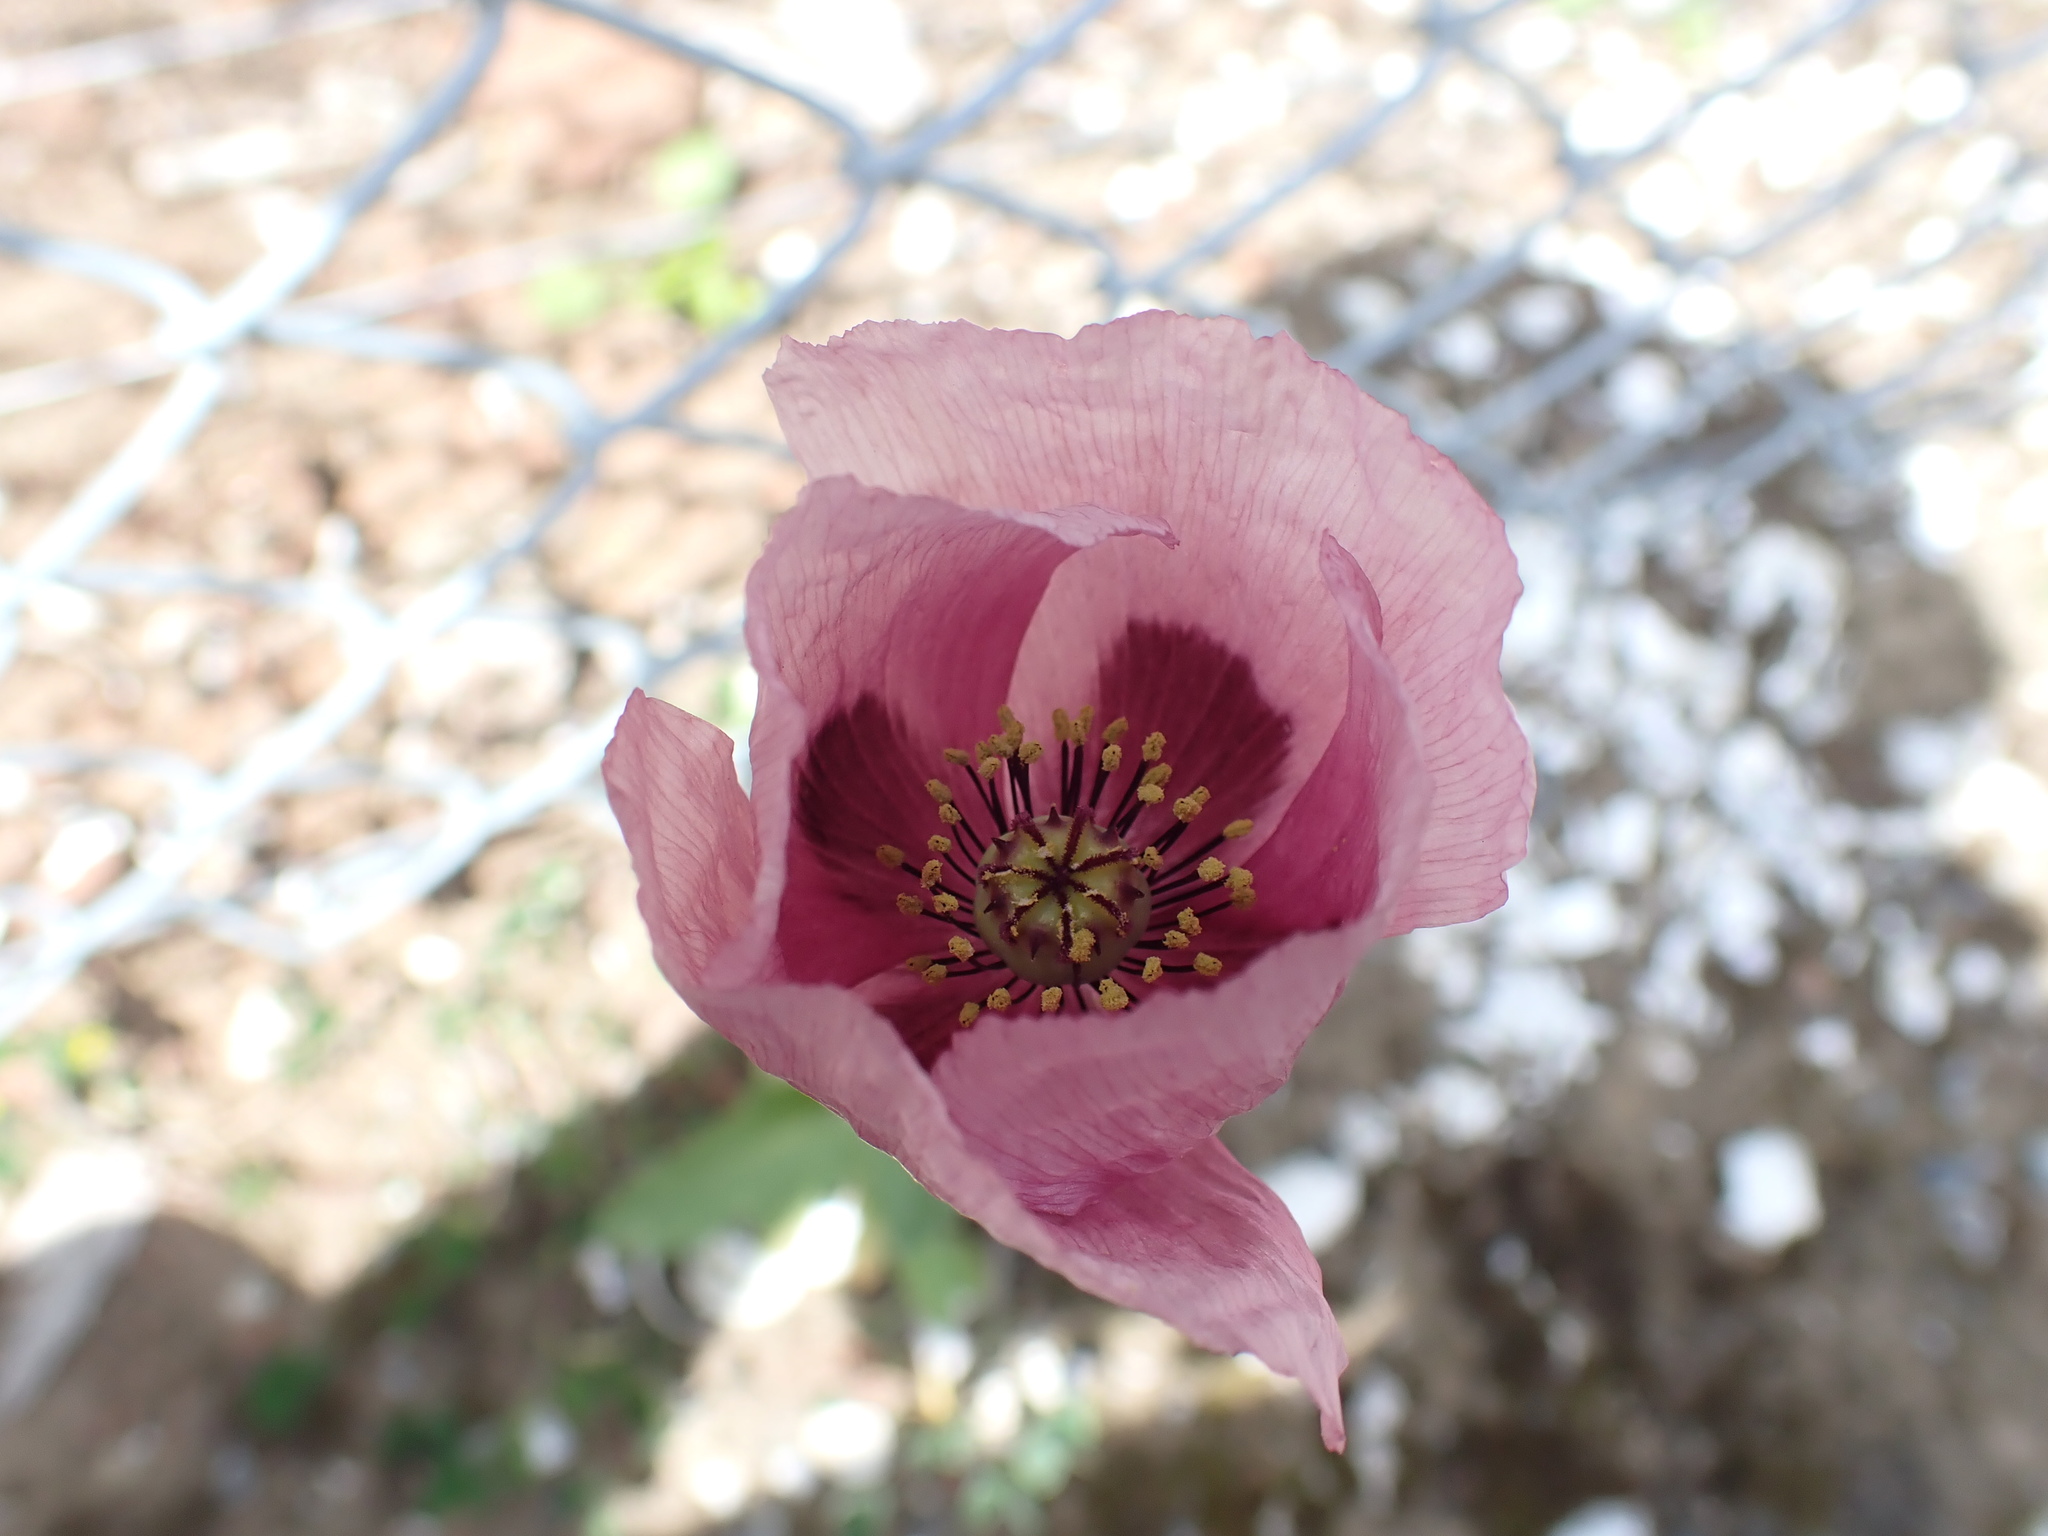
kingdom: Plantae
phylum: Tracheophyta
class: Magnoliopsida
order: Ranunculales
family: Papaveraceae
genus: Papaver
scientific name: Papaver somniferum
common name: Opium poppy
